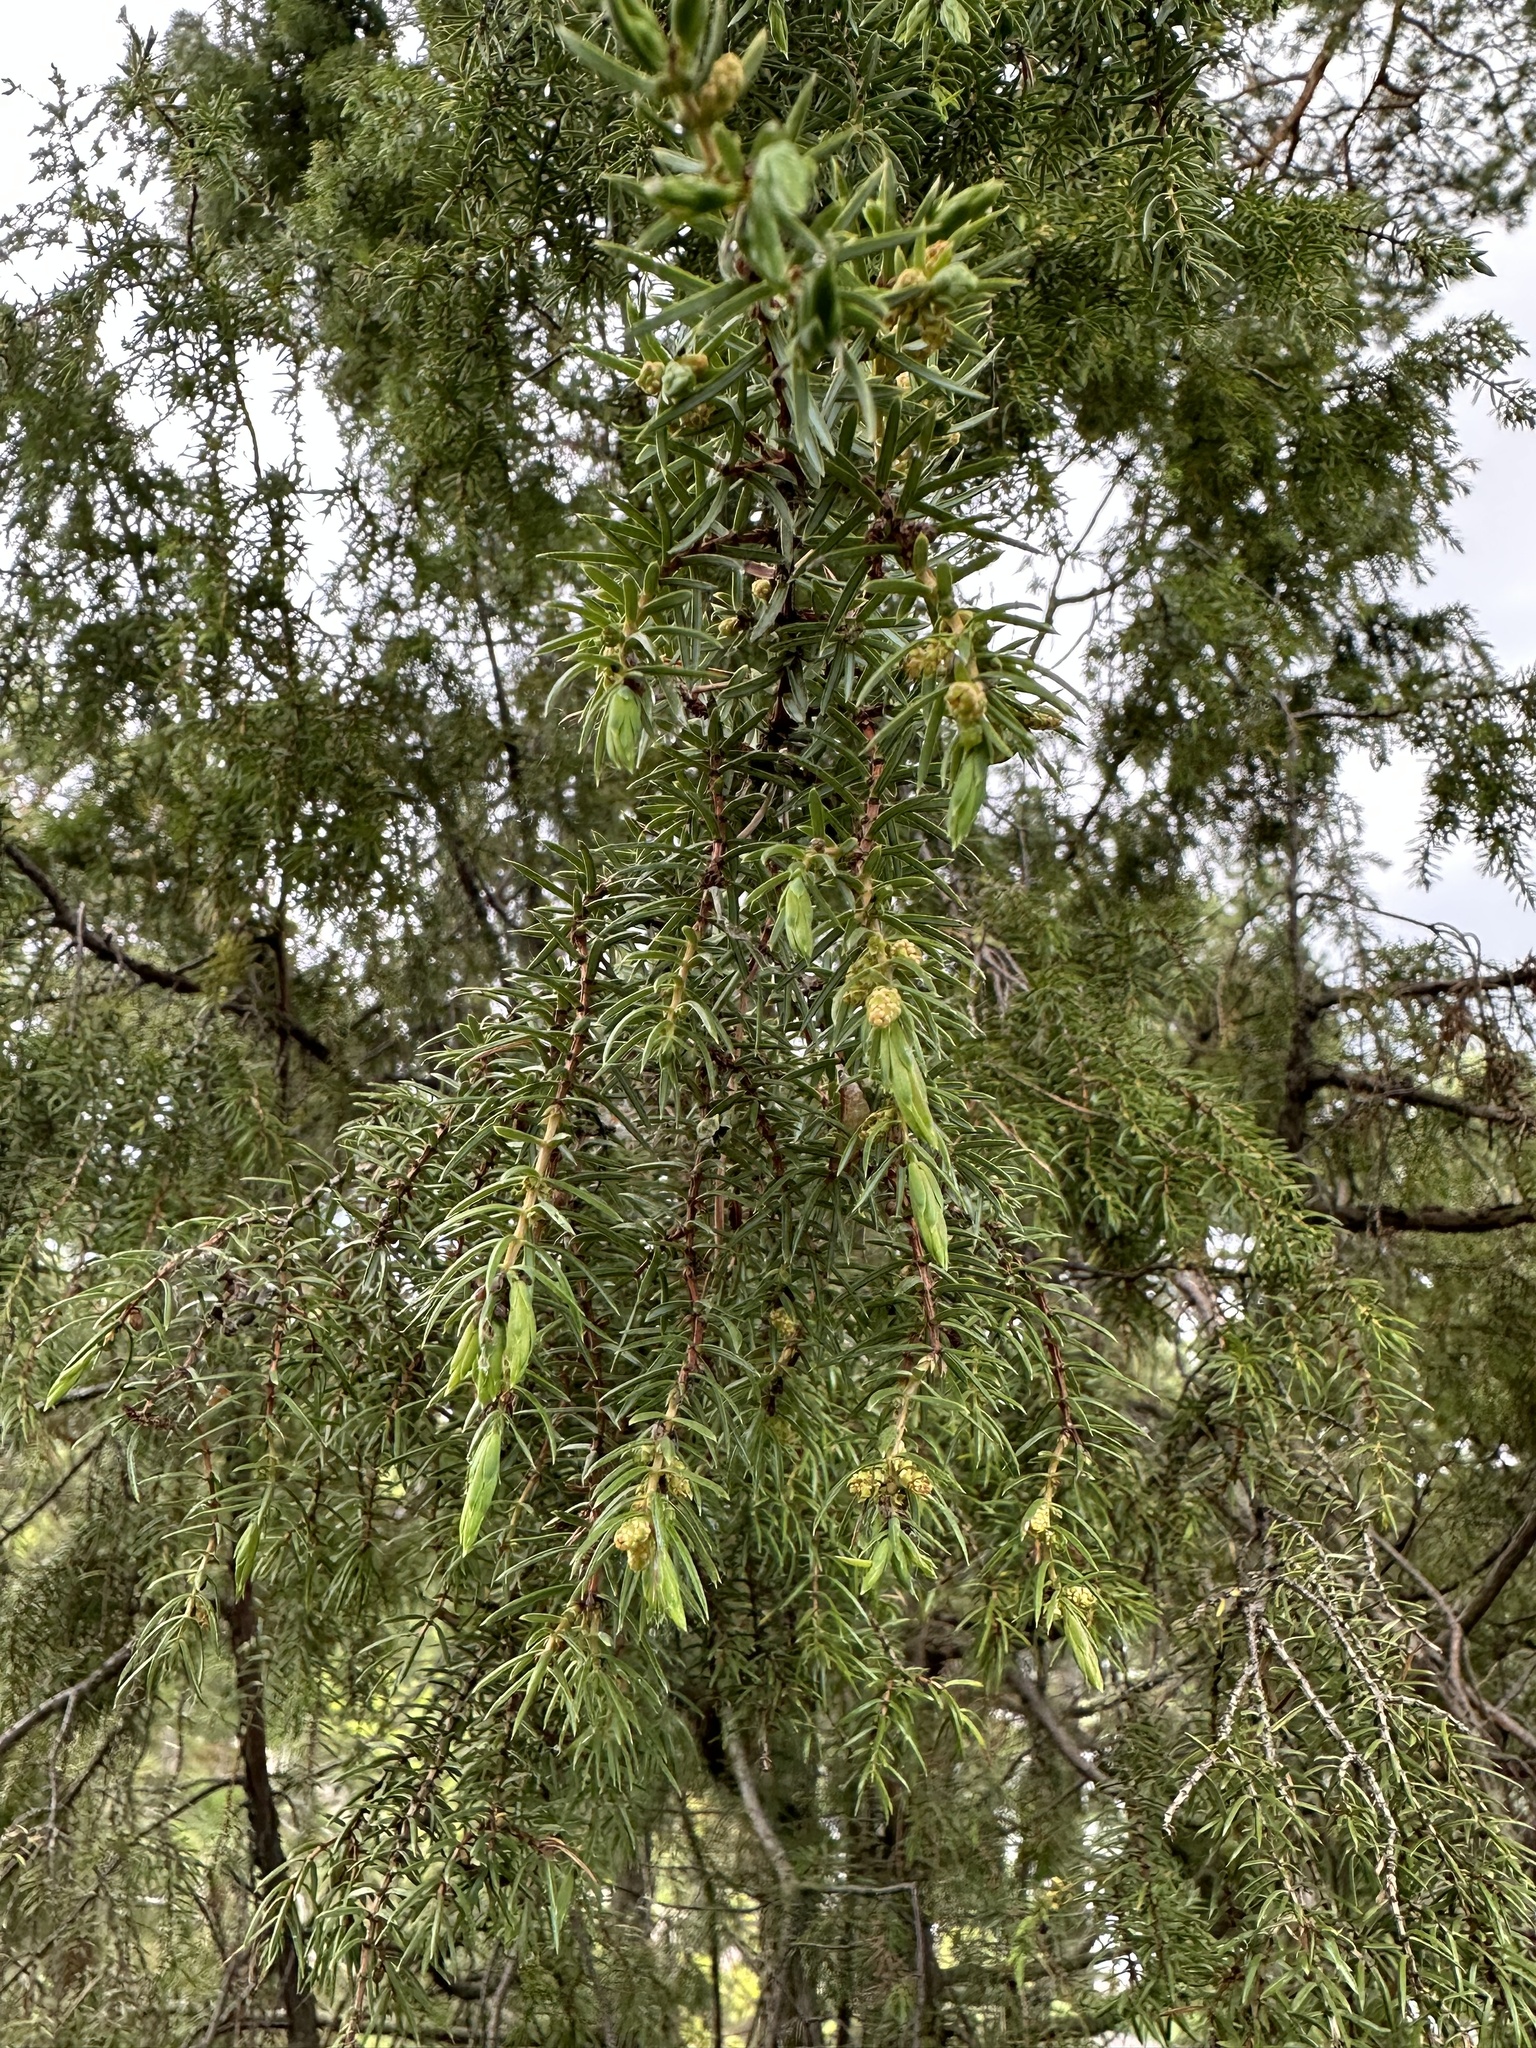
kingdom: Plantae
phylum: Tracheophyta
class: Pinopsida
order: Pinales
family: Cupressaceae
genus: Juniperus
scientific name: Juniperus communis
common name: Common juniper
